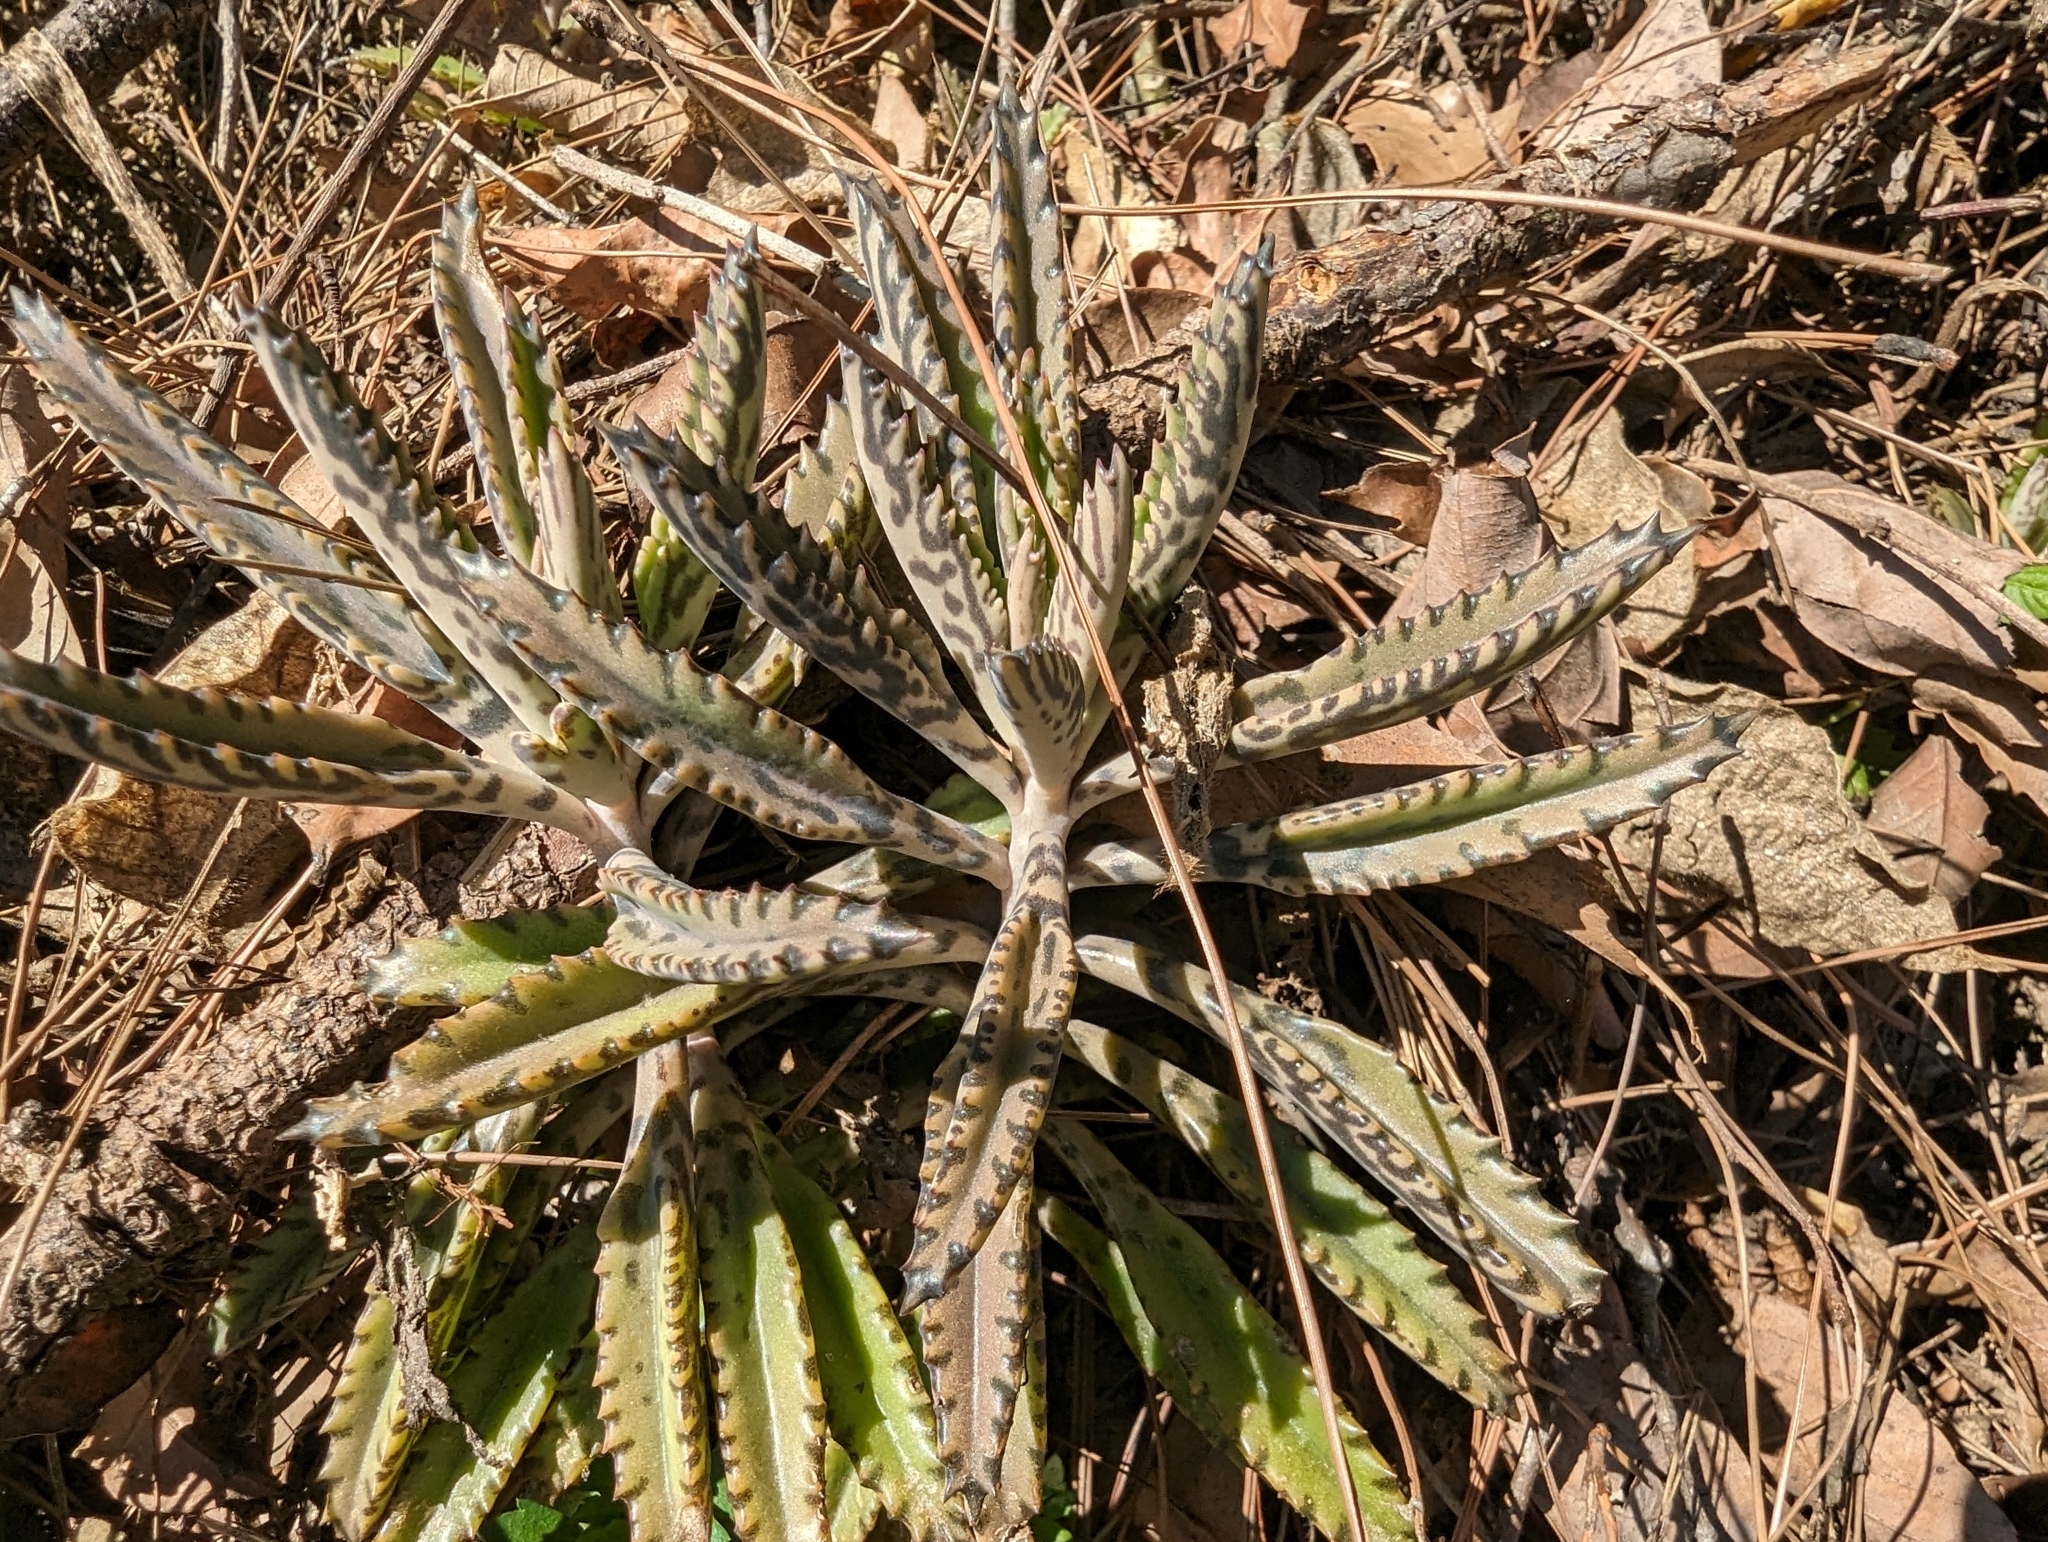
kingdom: Plantae
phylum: Tracheophyta
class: Magnoliopsida
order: Saxifragales
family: Crassulaceae
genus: Kalanchoe
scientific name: Kalanchoe houghtonii
